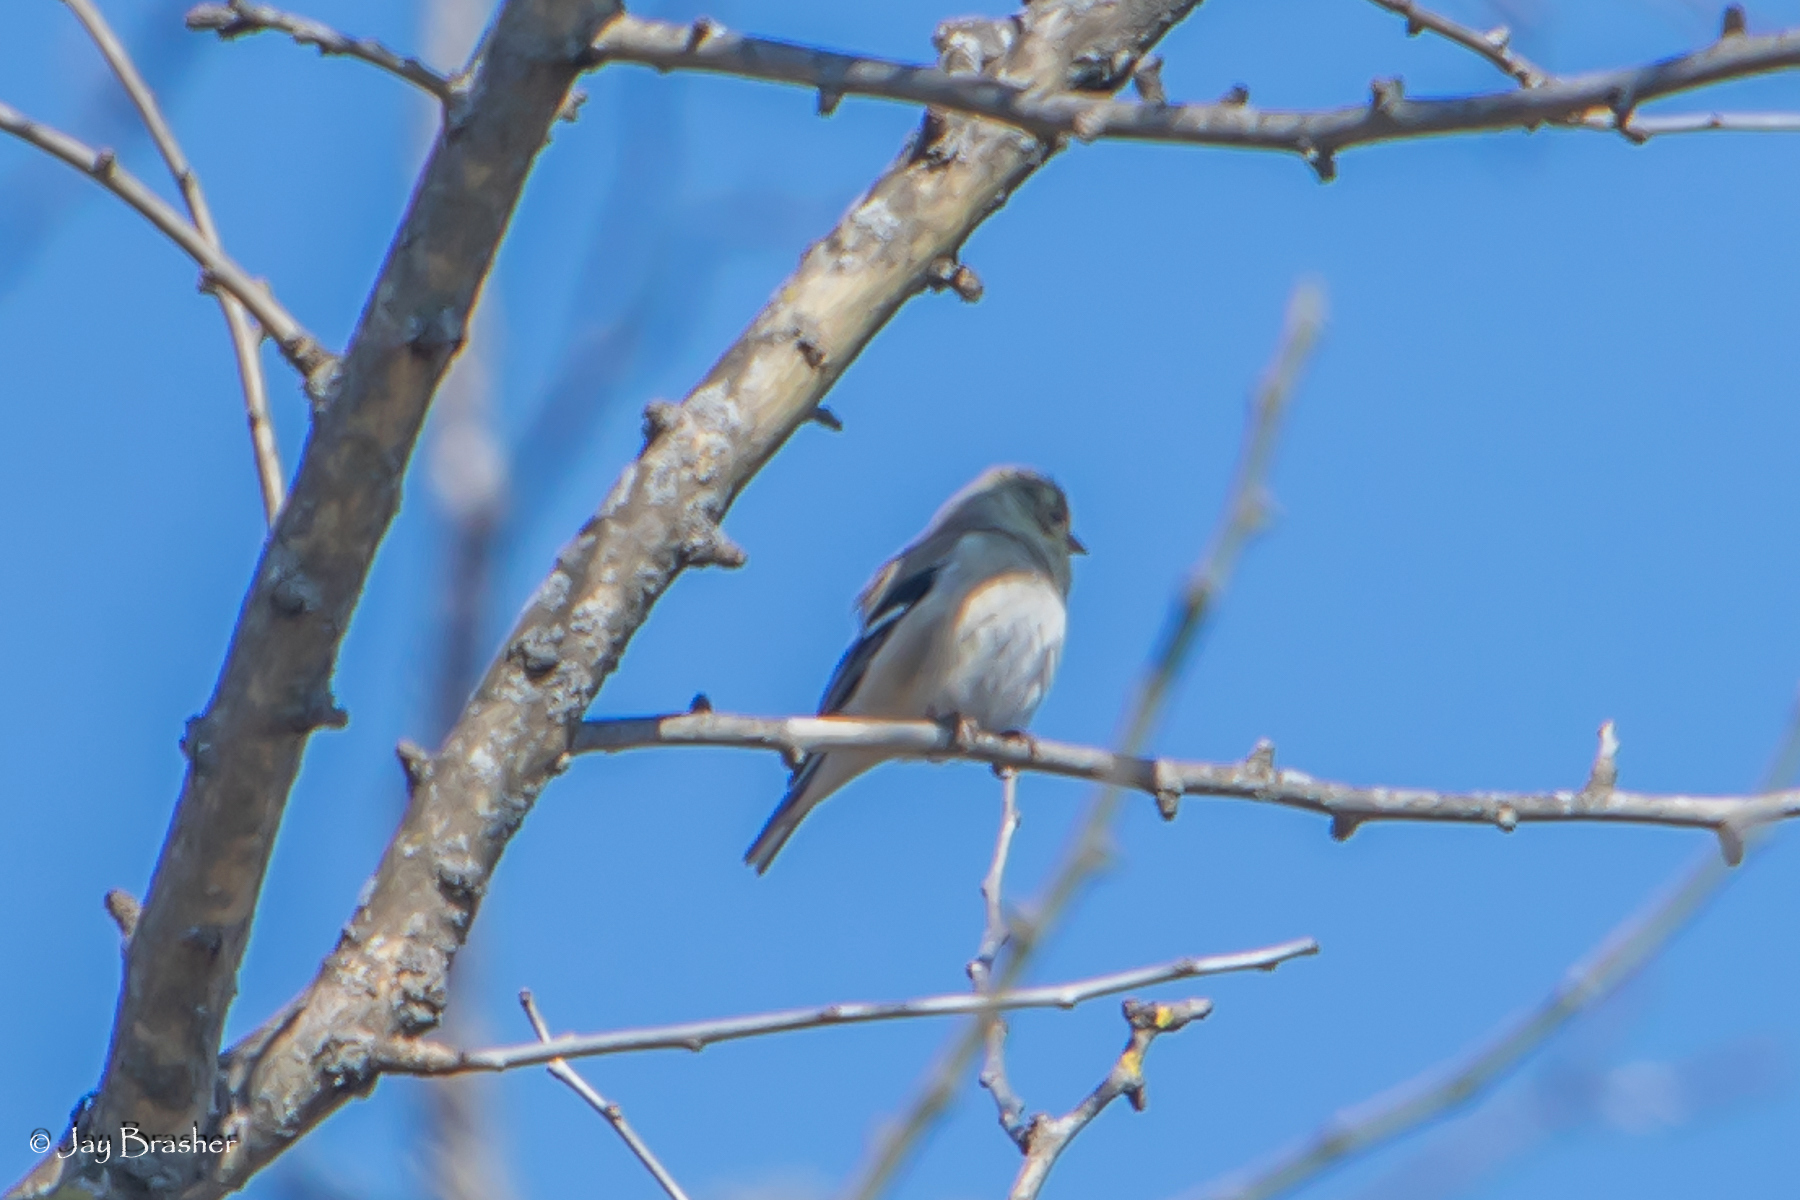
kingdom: Animalia
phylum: Chordata
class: Aves
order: Passeriformes
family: Fringillidae
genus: Spinus
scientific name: Spinus tristis
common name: American goldfinch
